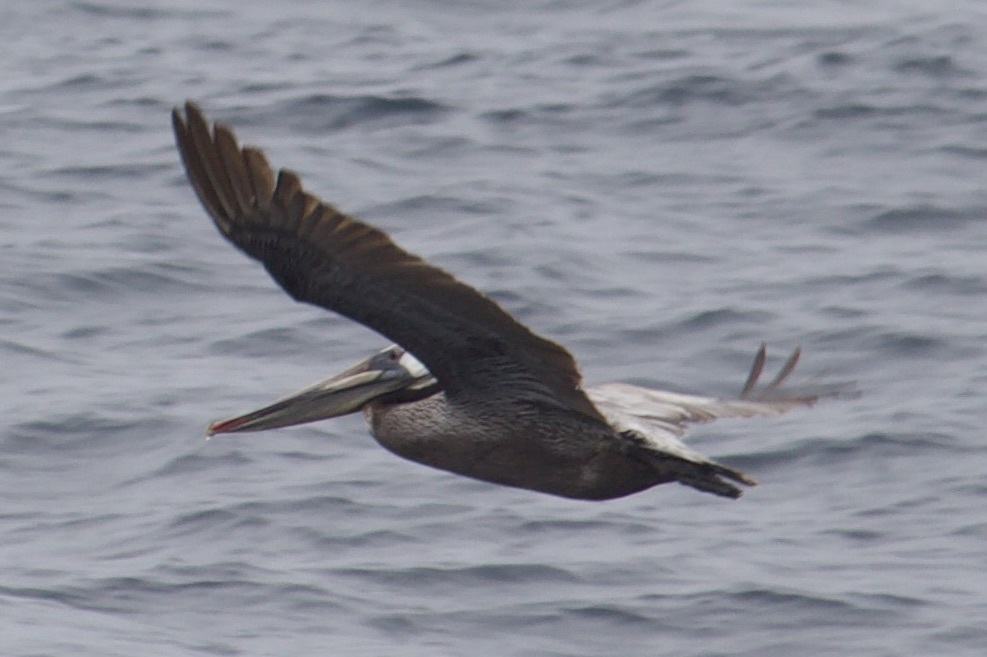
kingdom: Animalia
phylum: Chordata
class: Aves
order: Pelecaniformes
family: Pelecanidae
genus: Pelecanus
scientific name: Pelecanus occidentalis
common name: Brown pelican
